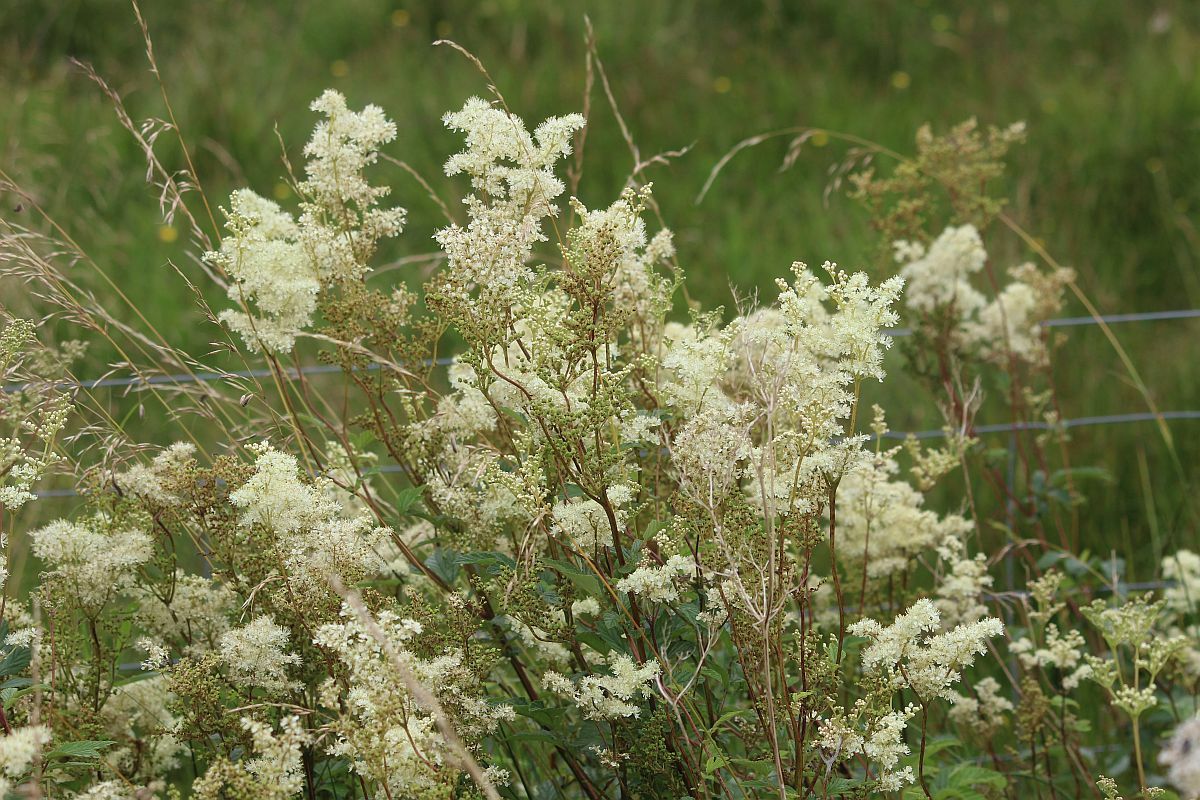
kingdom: Plantae
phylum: Tracheophyta
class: Magnoliopsida
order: Rosales
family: Rosaceae
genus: Filipendula
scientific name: Filipendula ulmaria
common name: Meadowsweet
